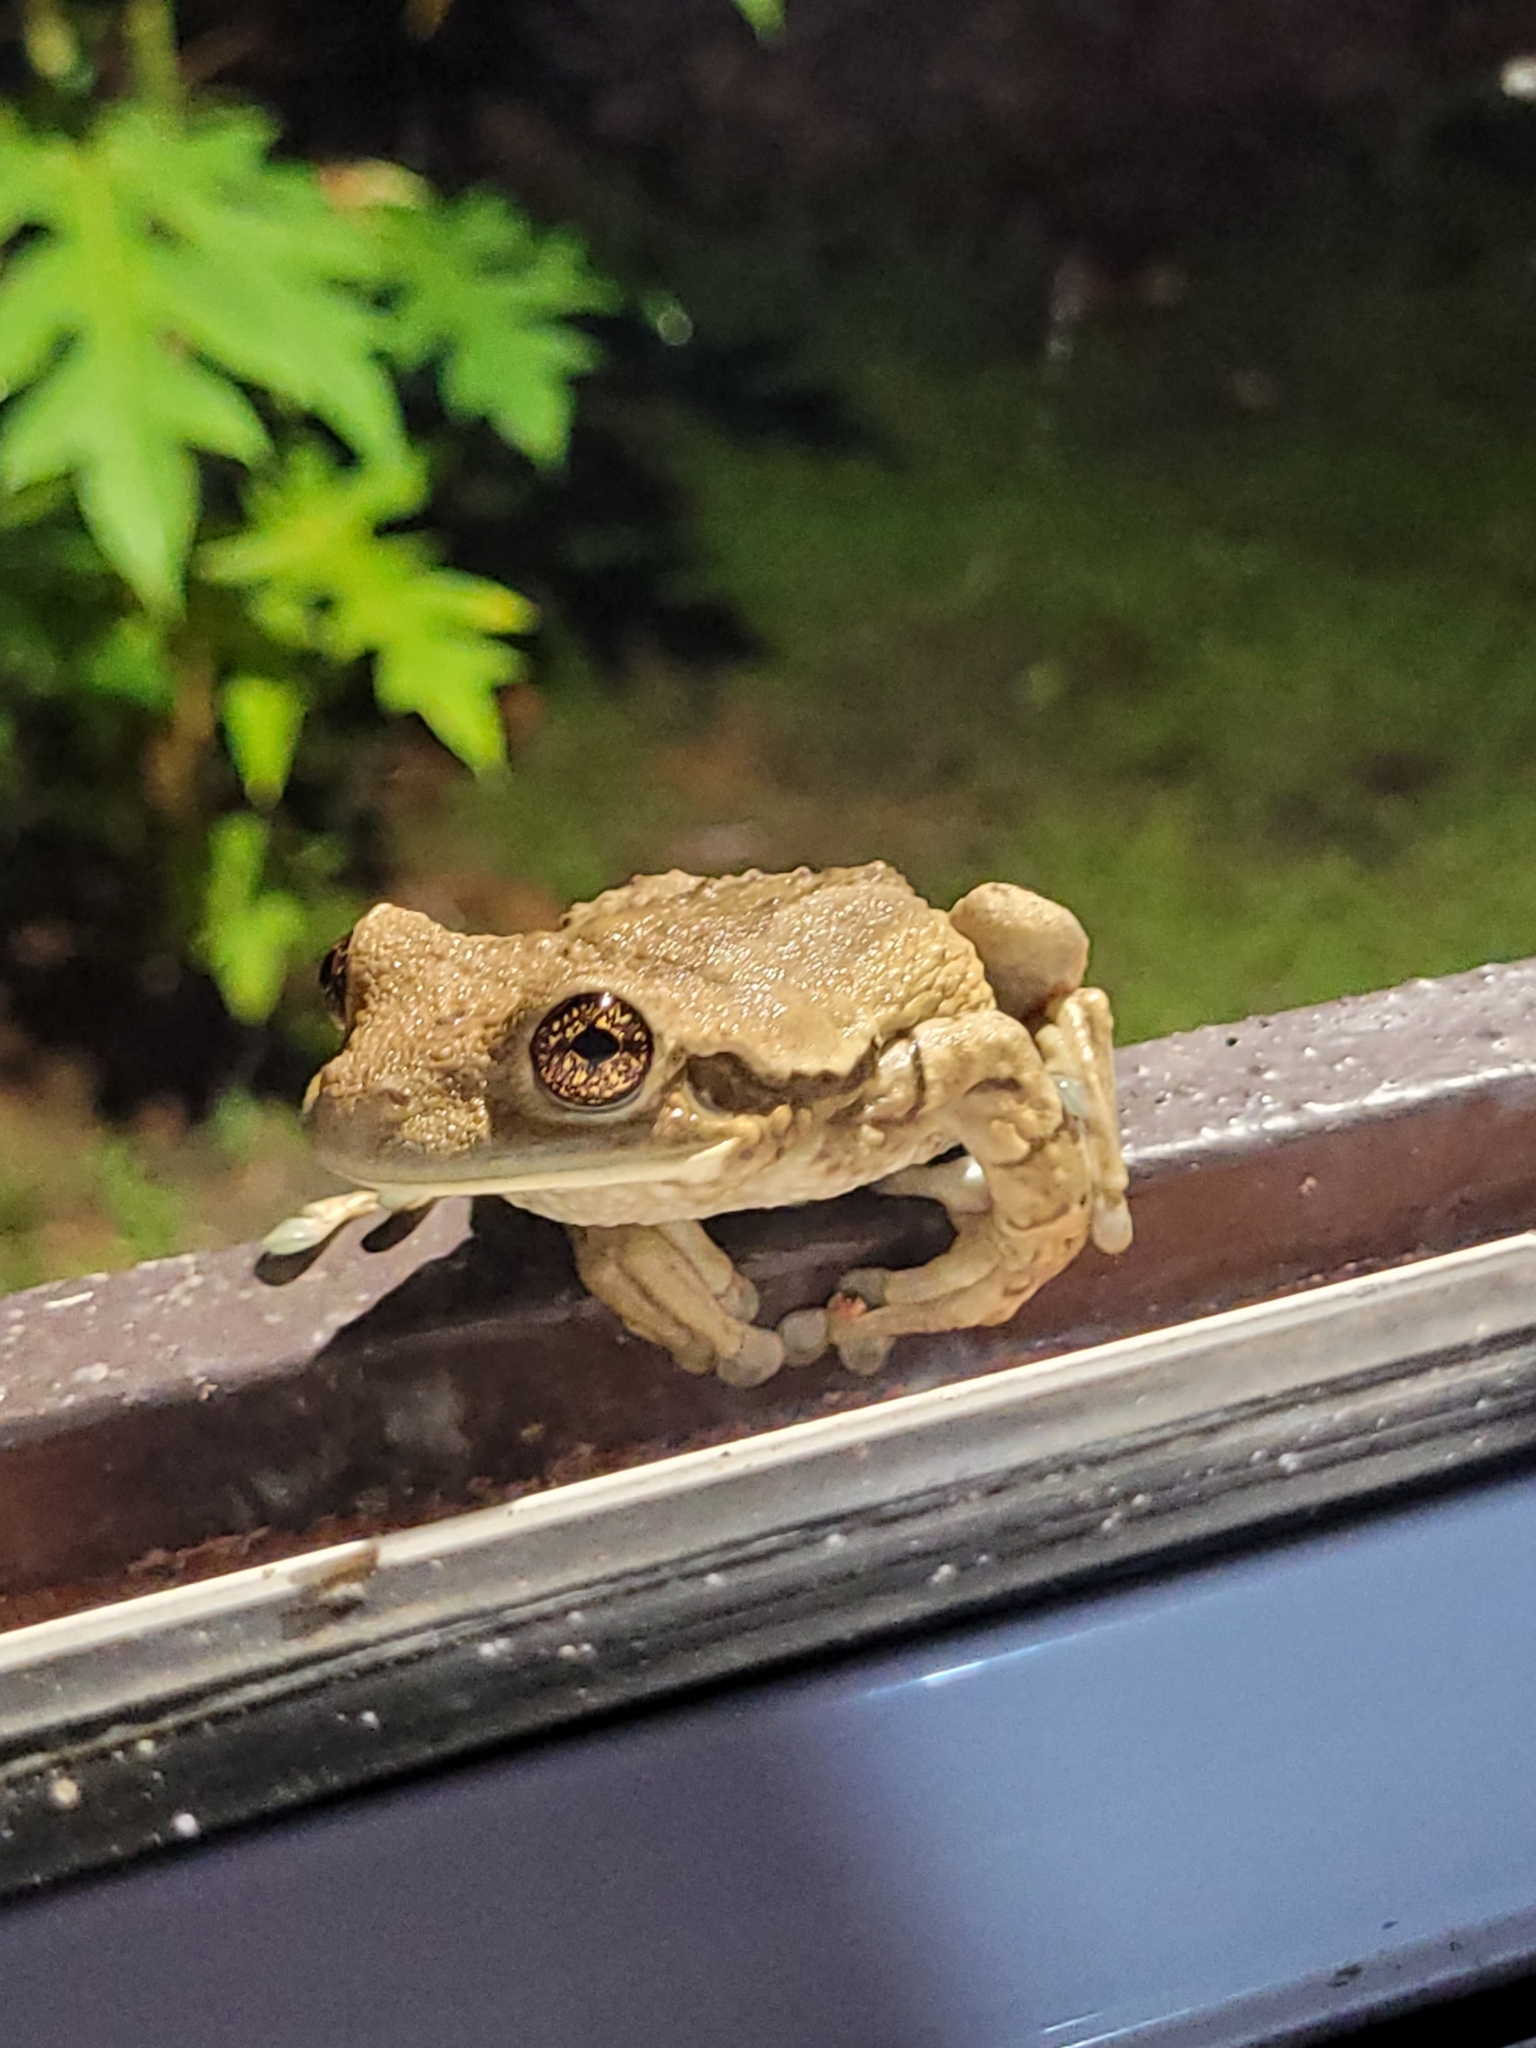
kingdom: Animalia
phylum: Chordata
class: Amphibia
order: Anura
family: Hylidae
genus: Trachycephalus
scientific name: Trachycephalus vermiculatus
